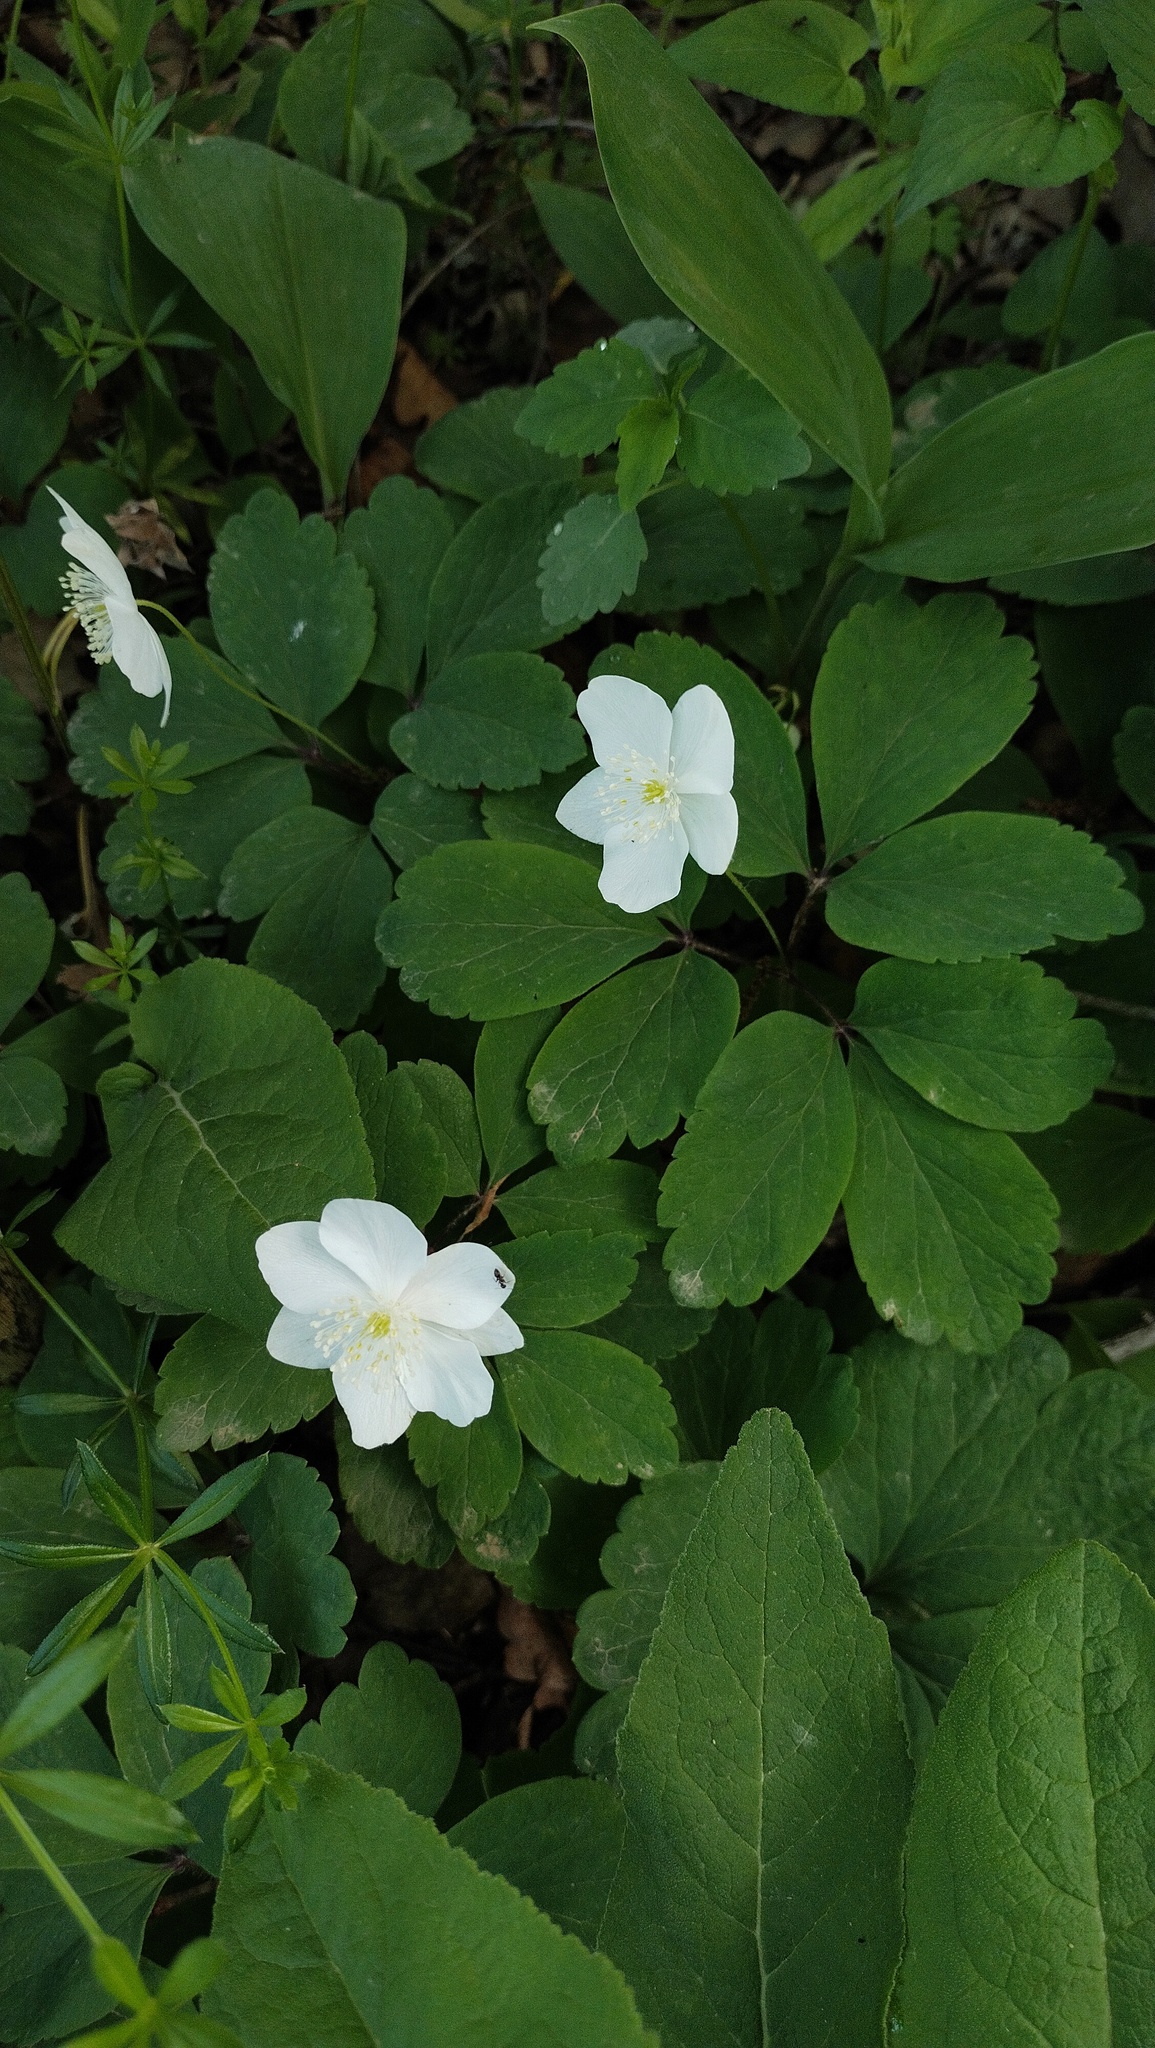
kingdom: Plantae
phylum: Tracheophyta
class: Magnoliopsida
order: Ranunculales
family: Ranunculaceae
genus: Anemone
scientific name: Anemone udensis
